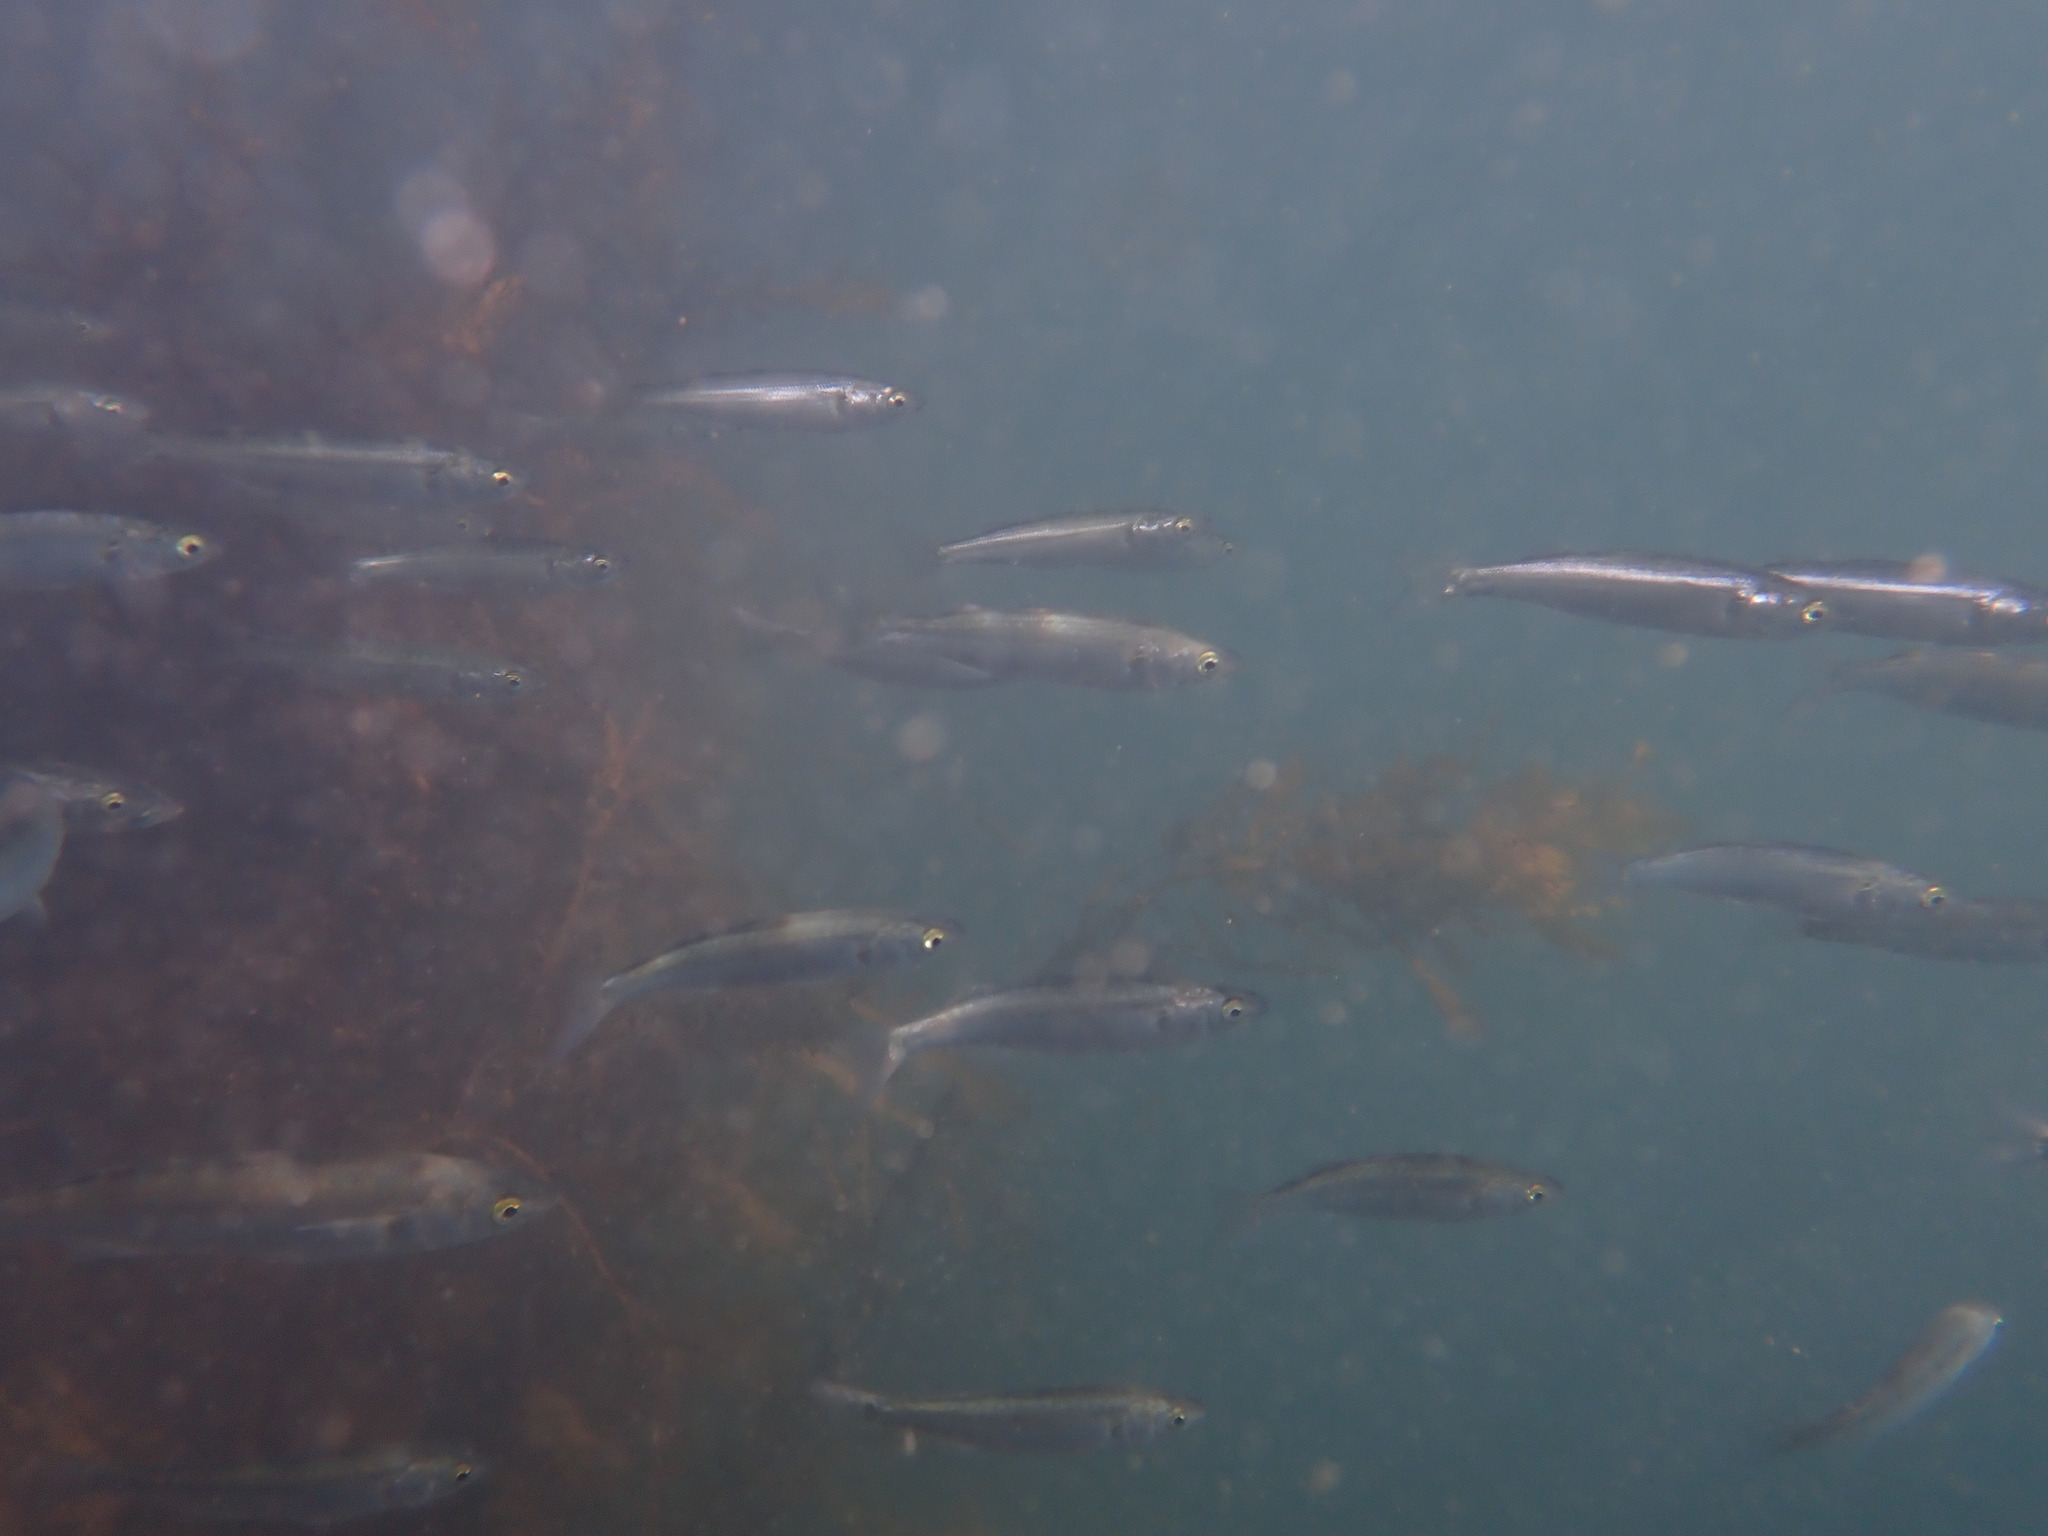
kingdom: Animalia
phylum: Chordata
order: Mugiliformes
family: Mugilidae
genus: Aldrichetta
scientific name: Aldrichetta forsteri
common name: Yellow-eye mullet
